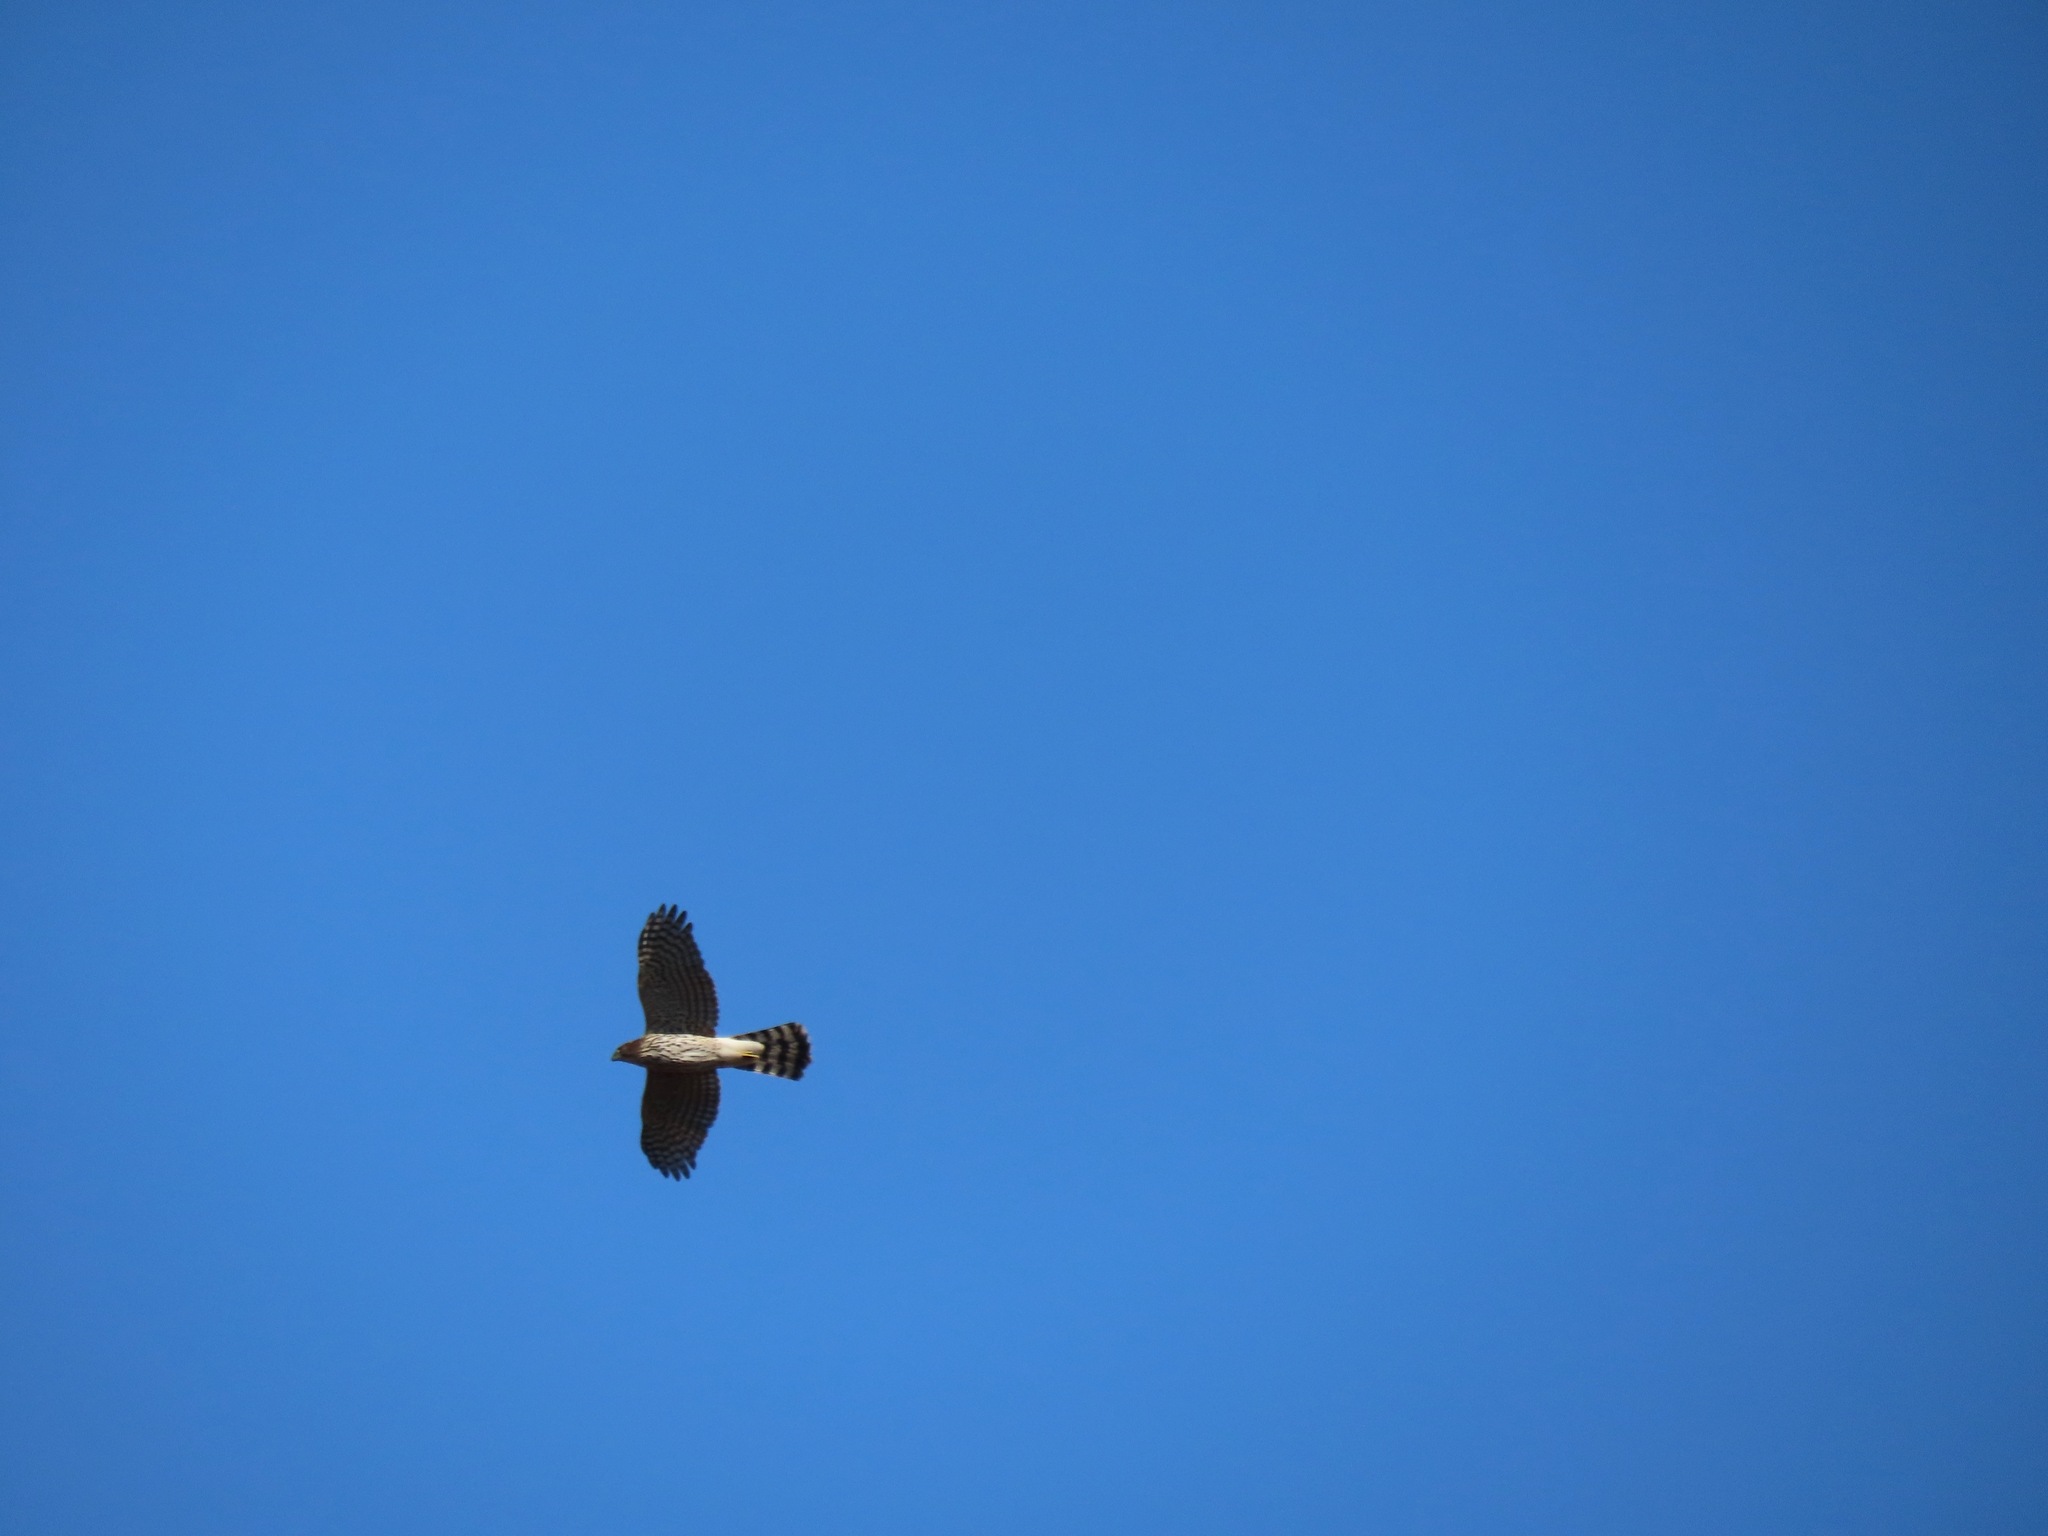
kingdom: Animalia
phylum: Chordata
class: Aves
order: Accipitriformes
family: Accipitridae
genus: Accipiter
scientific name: Accipiter cooperii
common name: Cooper's hawk
